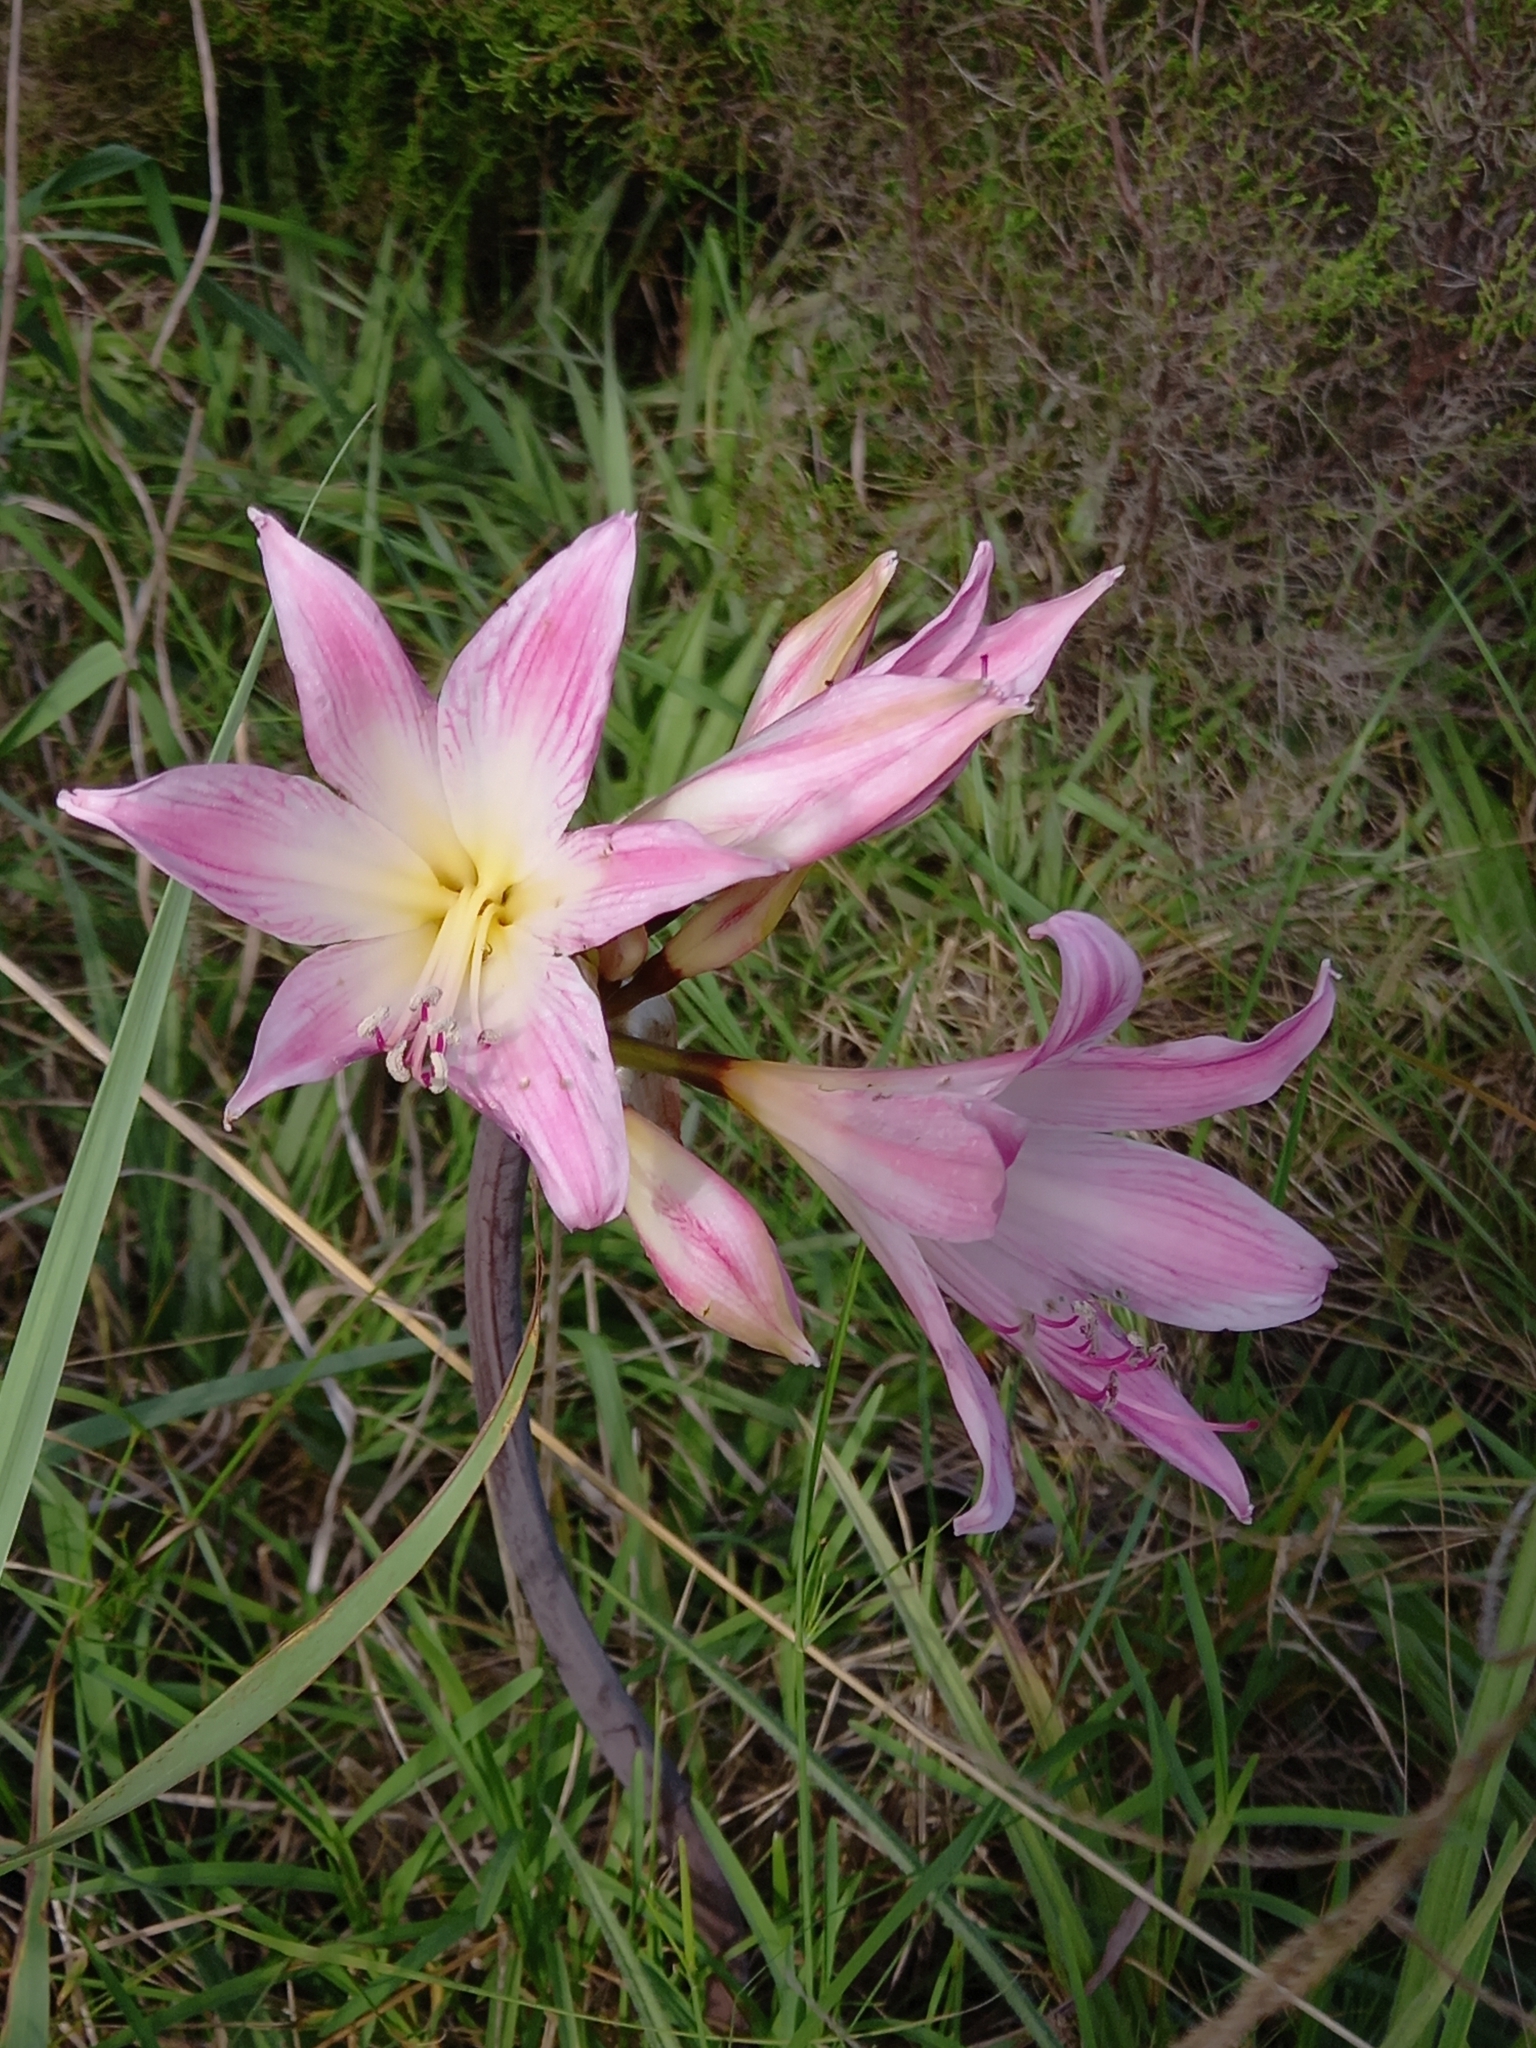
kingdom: Plantae
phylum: Tracheophyta
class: Liliopsida
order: Asparagales
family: Amaryllidaceae
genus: Amaryllis
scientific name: Amaryllis belladonna
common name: Jersey lily
